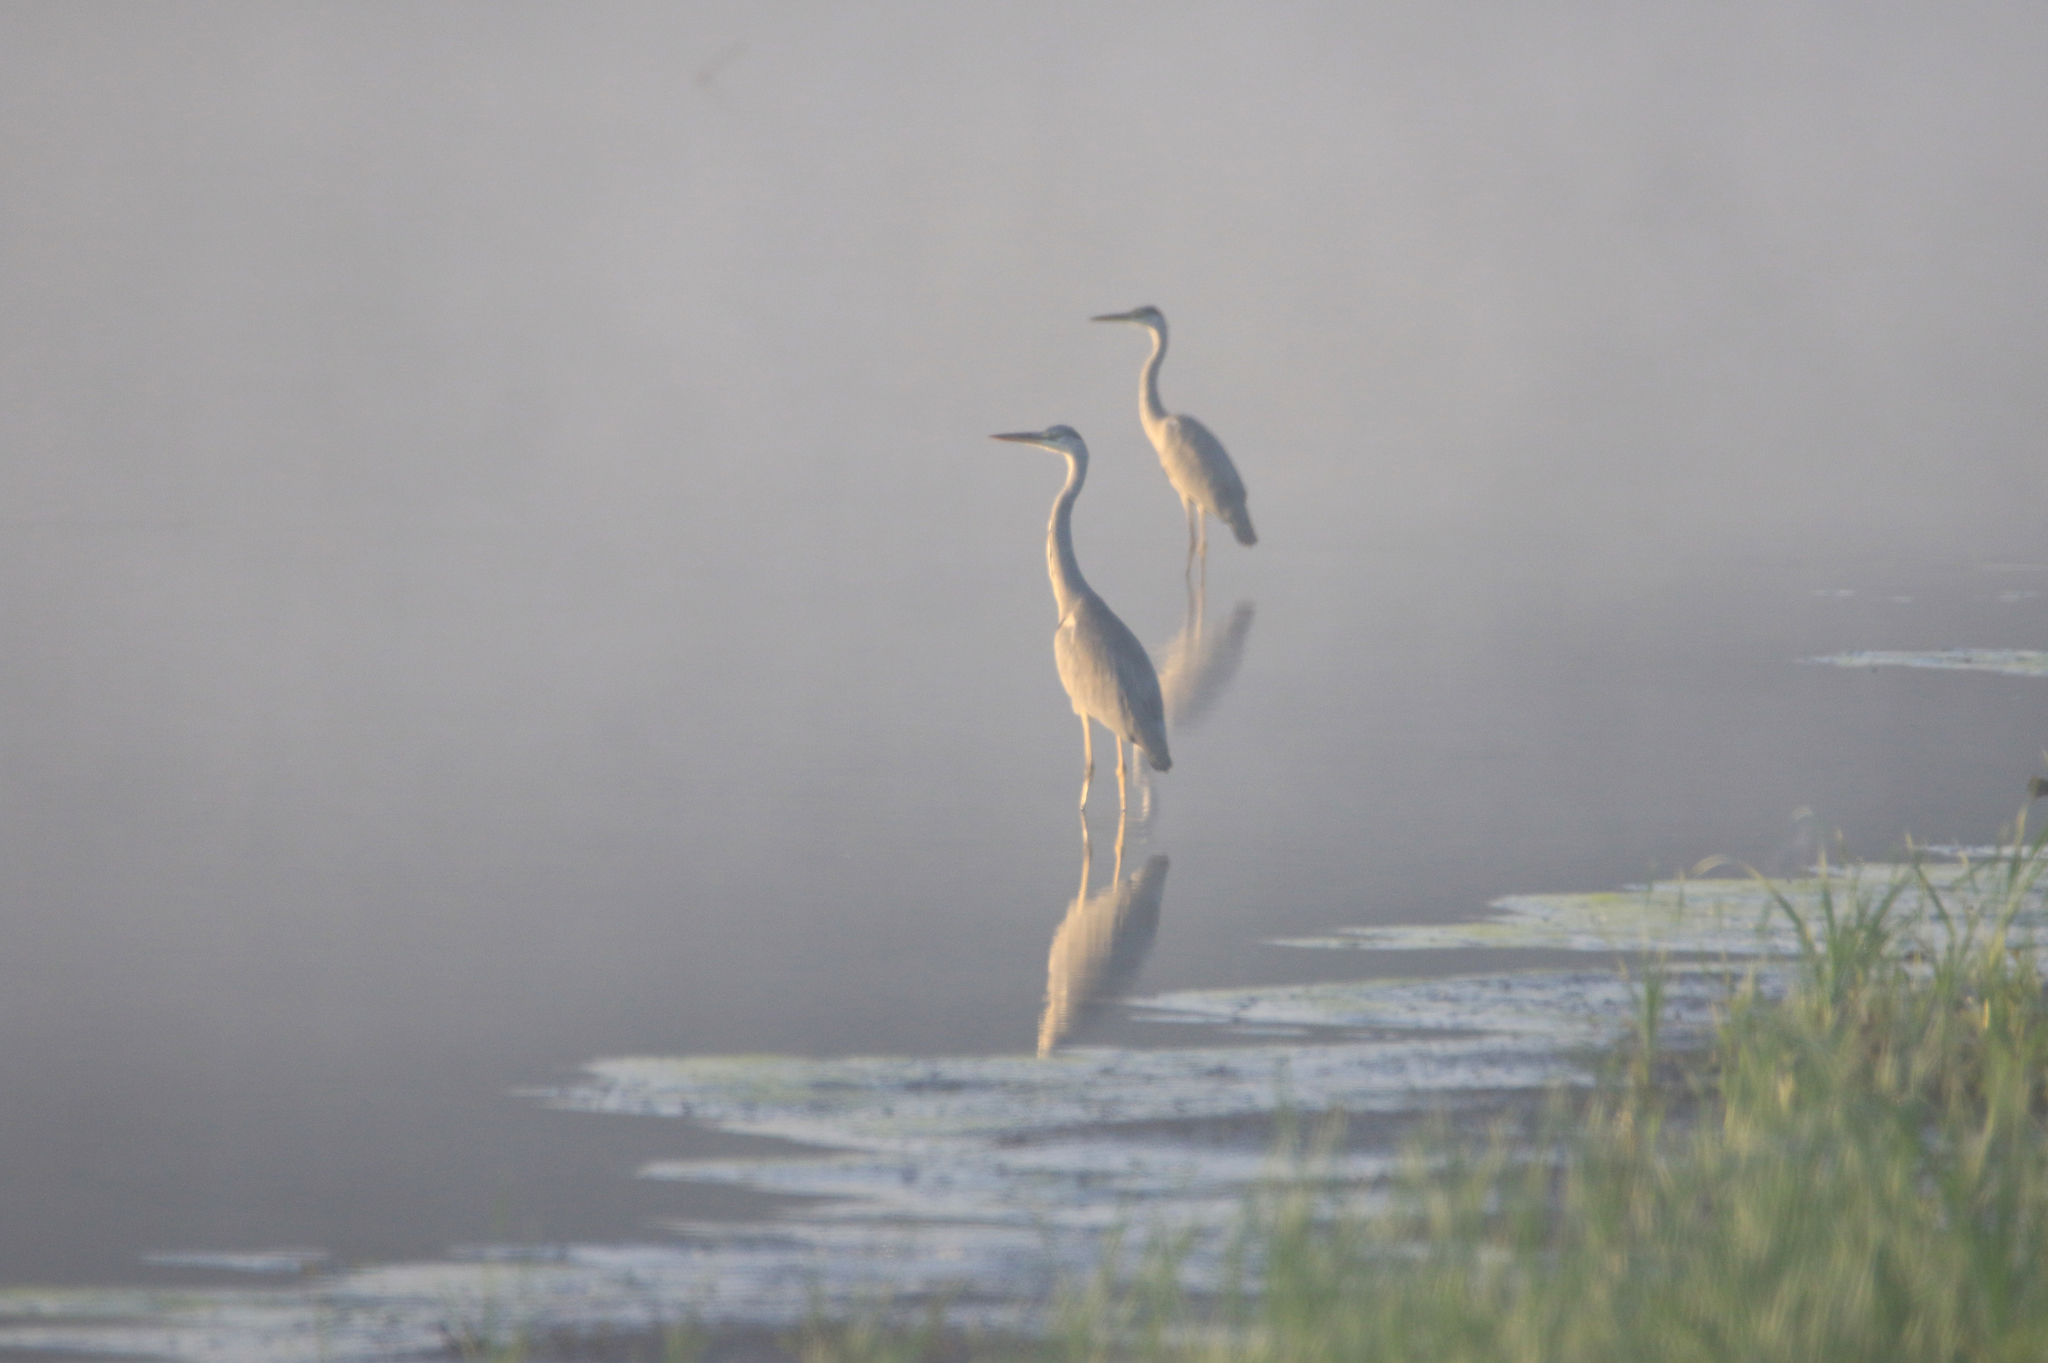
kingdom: Animalia
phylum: Chordata
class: Aves
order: Pelecaniformes
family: Ardeidae
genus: Ardea
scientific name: Ardea cinerea
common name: Grey heron
